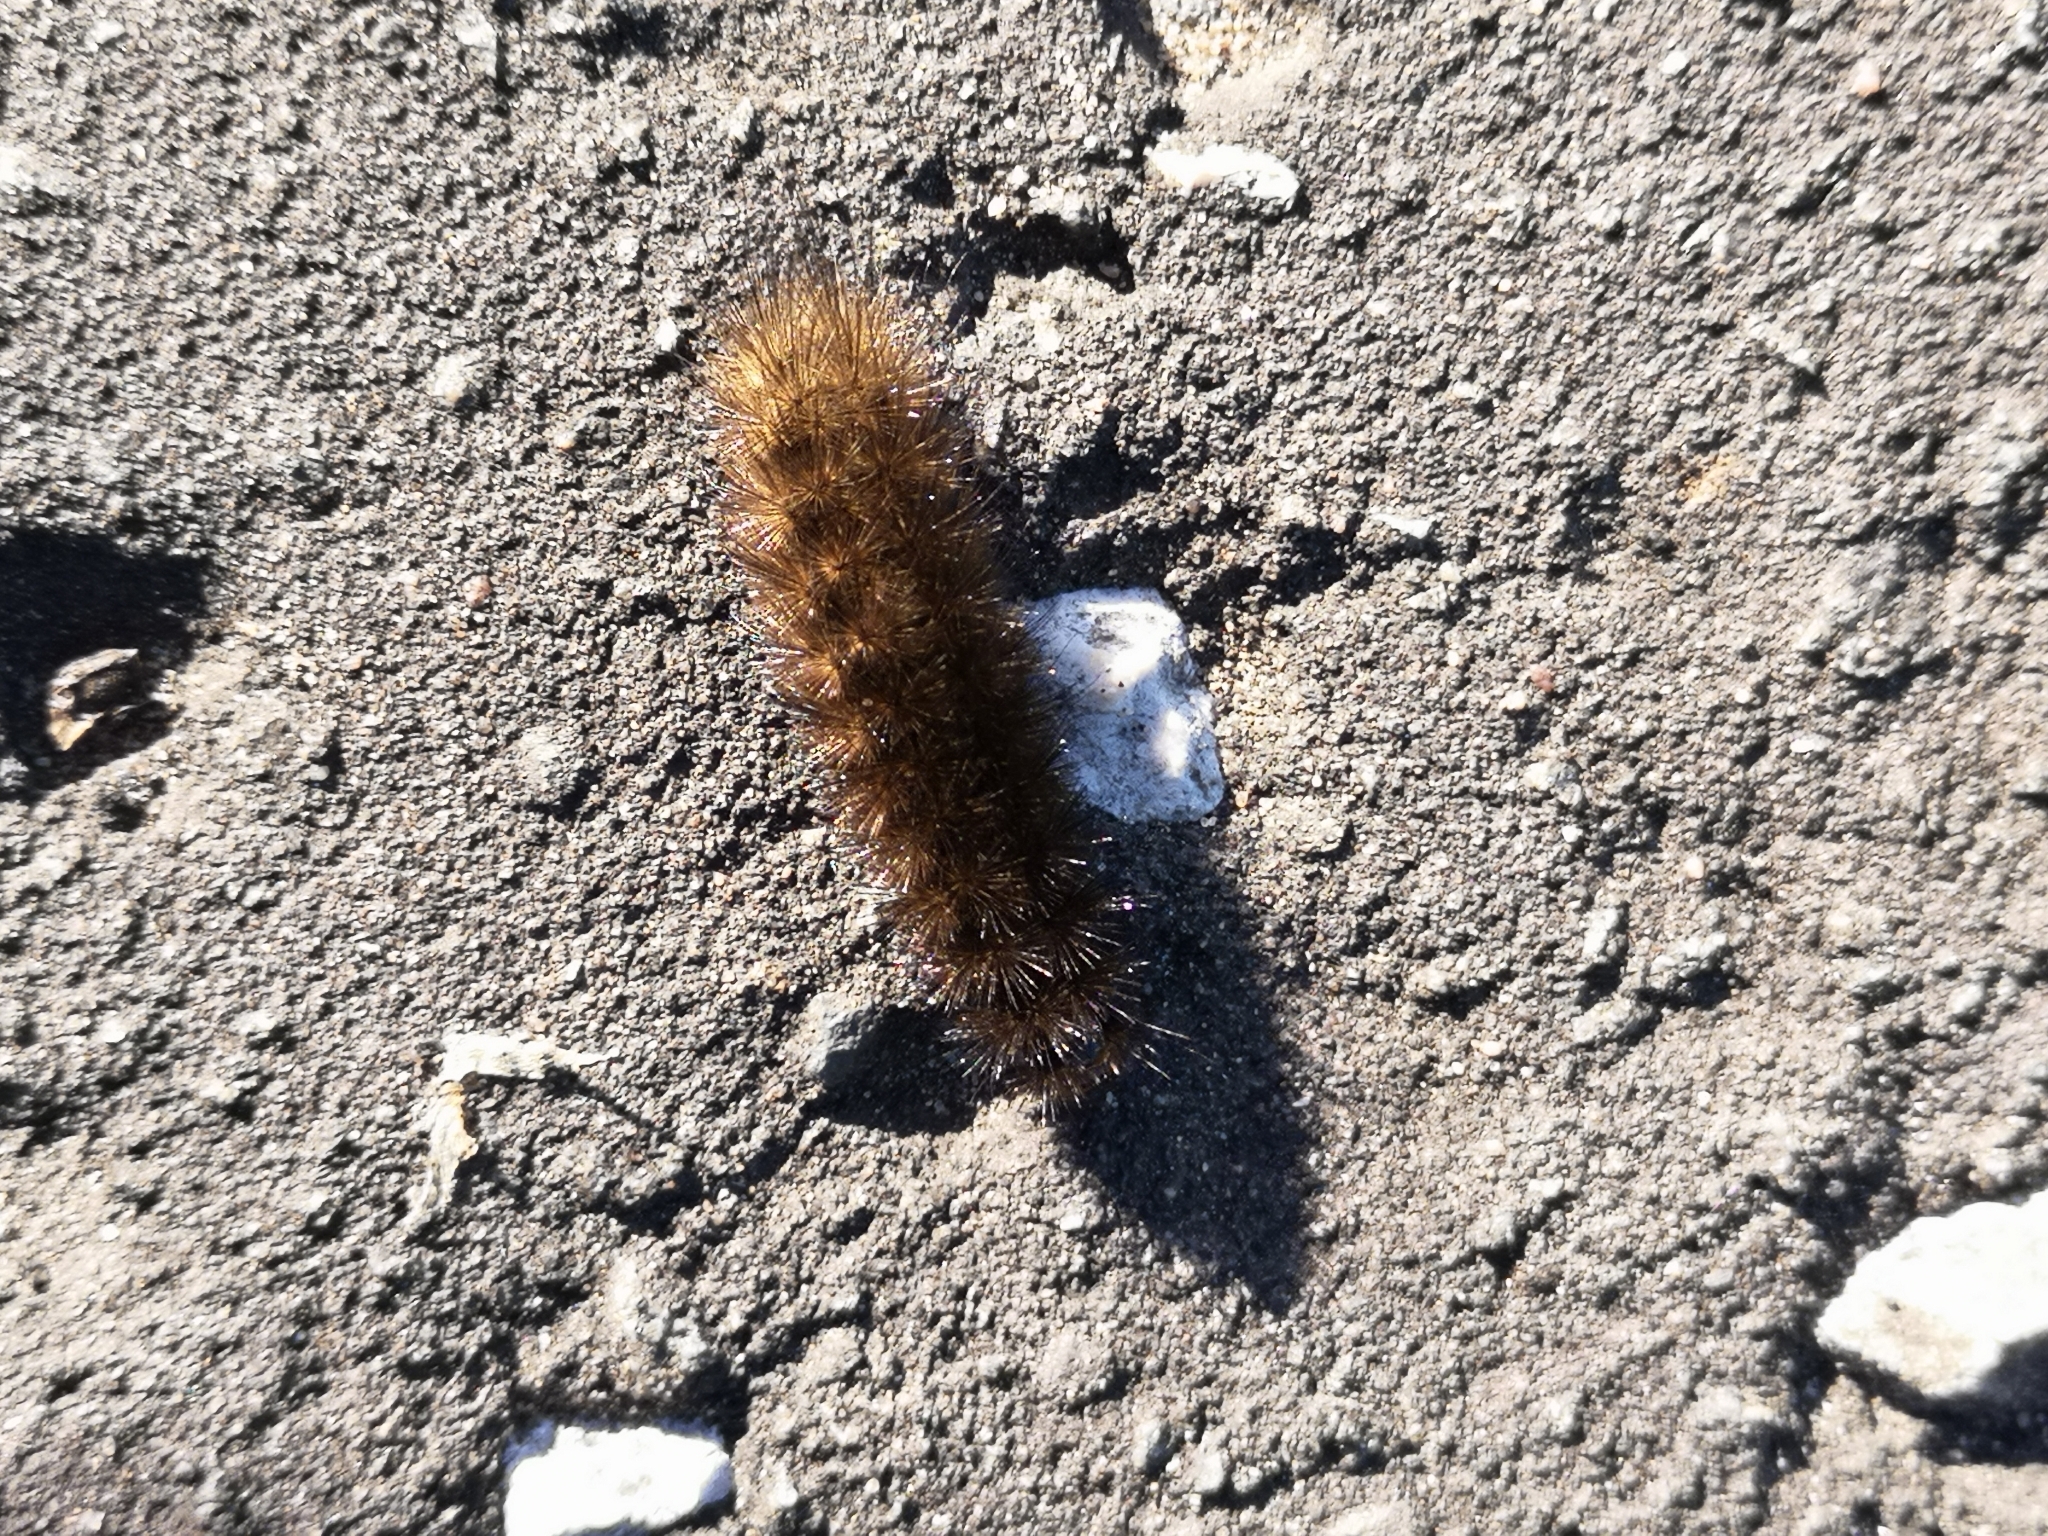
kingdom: Animalia
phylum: Arthropoda
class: Insecta
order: Lepidoptera
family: Erebidae
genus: Phragmatobia
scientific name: Phragmatobia fuliginosa
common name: Ruby tiger
